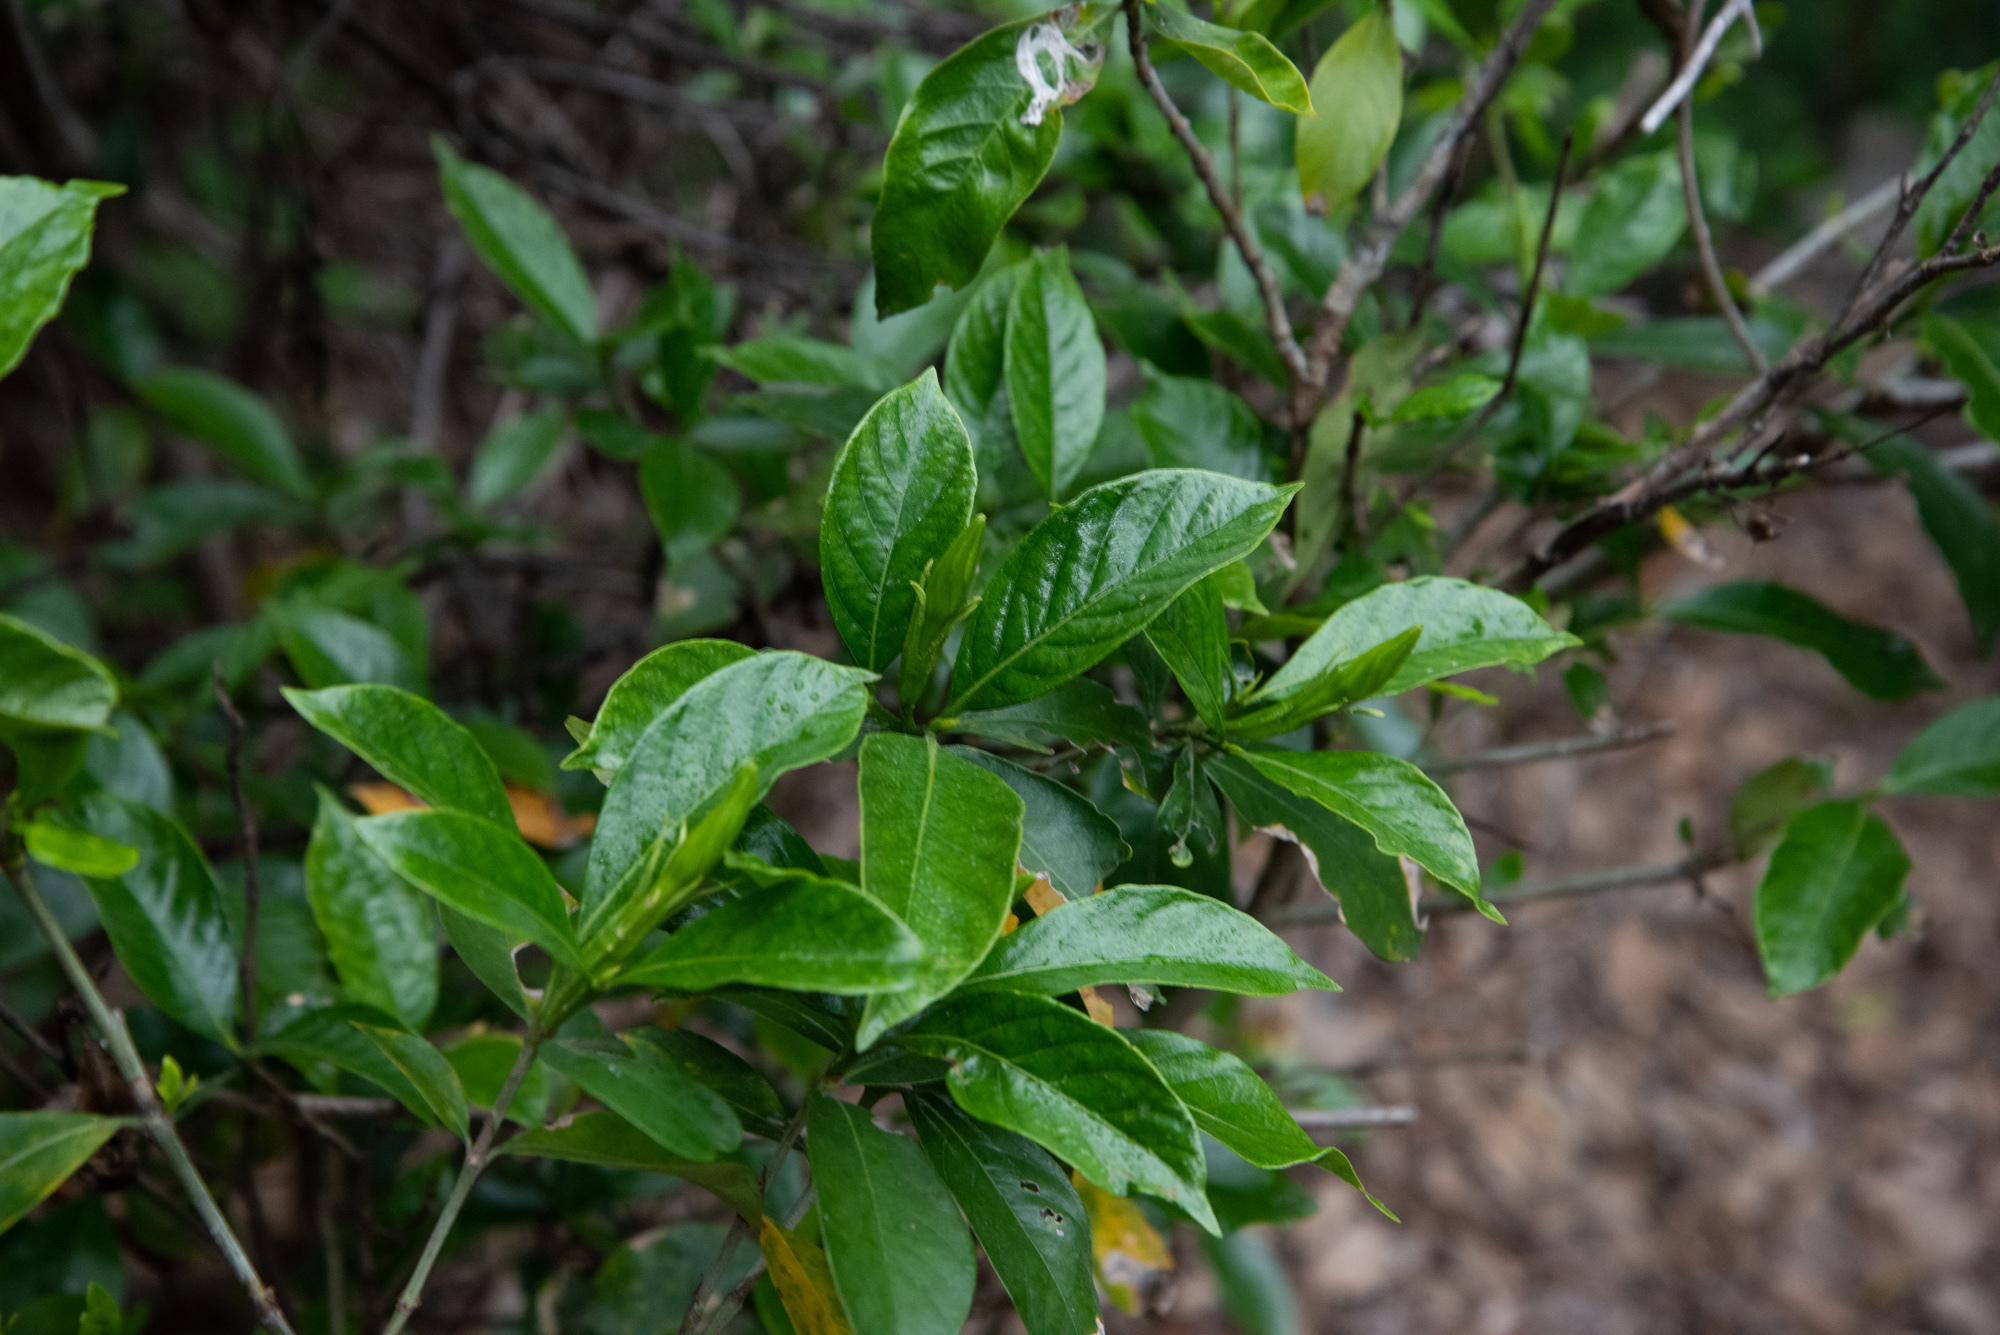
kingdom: Plantae
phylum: Tracheophyta
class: Magnoliopsida
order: Gentianales
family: Rubiaceae
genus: Gardenia
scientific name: Gardenia jasminoides
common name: Cape-jasmine
